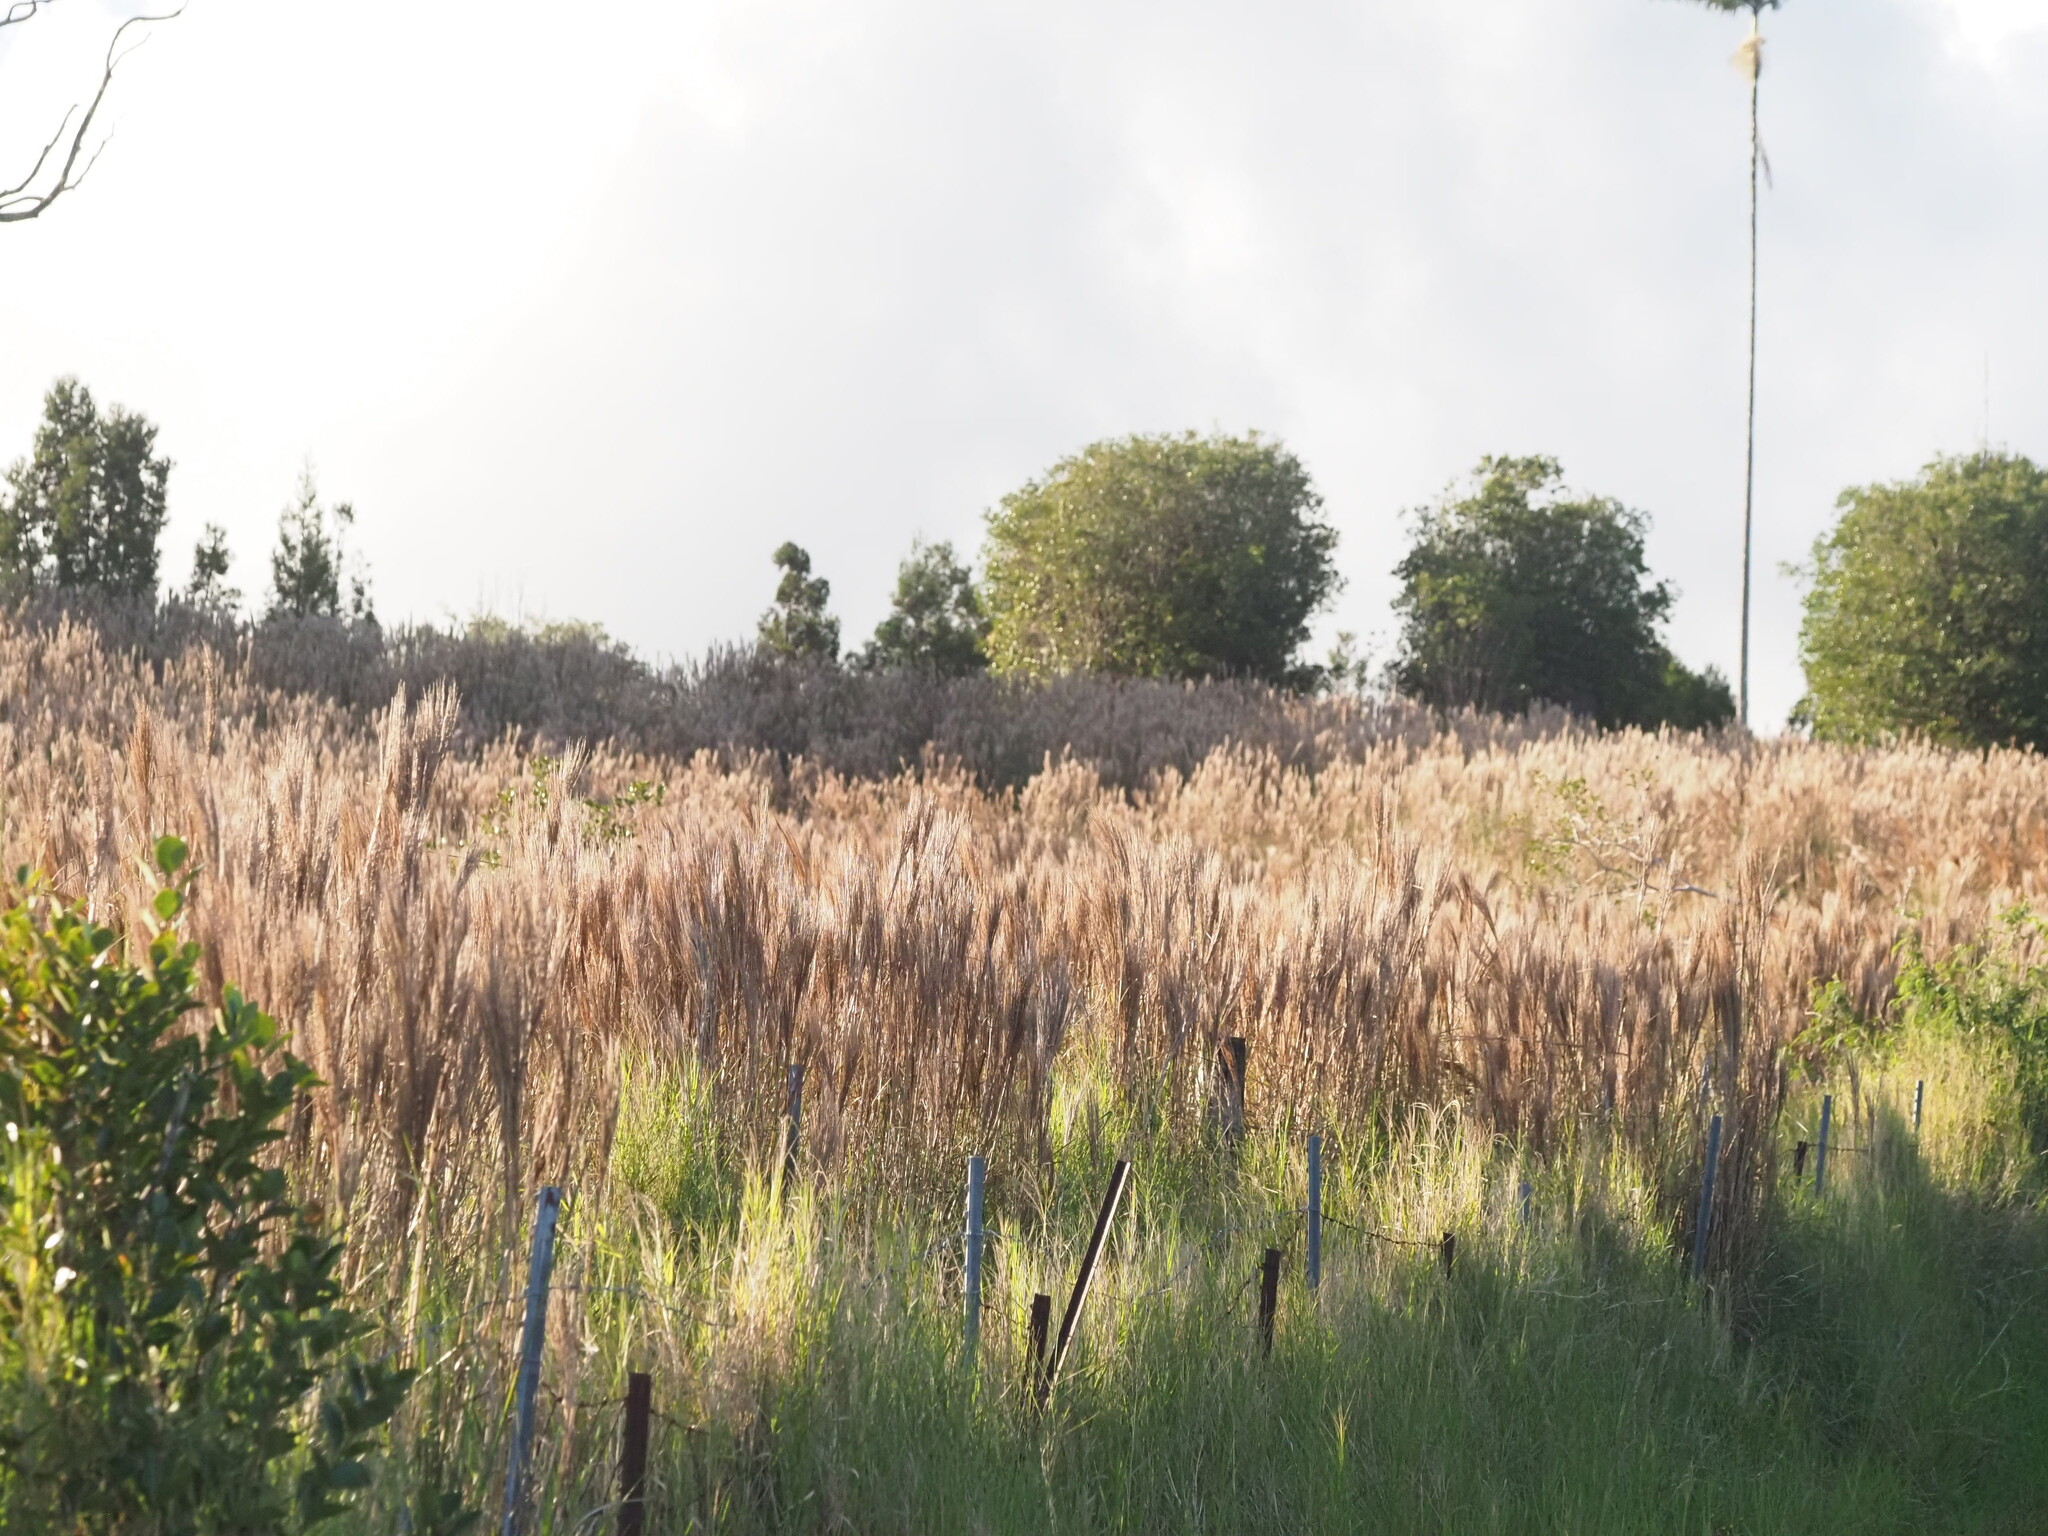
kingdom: Plantae
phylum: Tracheophyta
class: Liliopsida
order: Poales
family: Poaceae
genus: Andropogon
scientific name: Andropogon bicornis
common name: West indian foxtail grass
